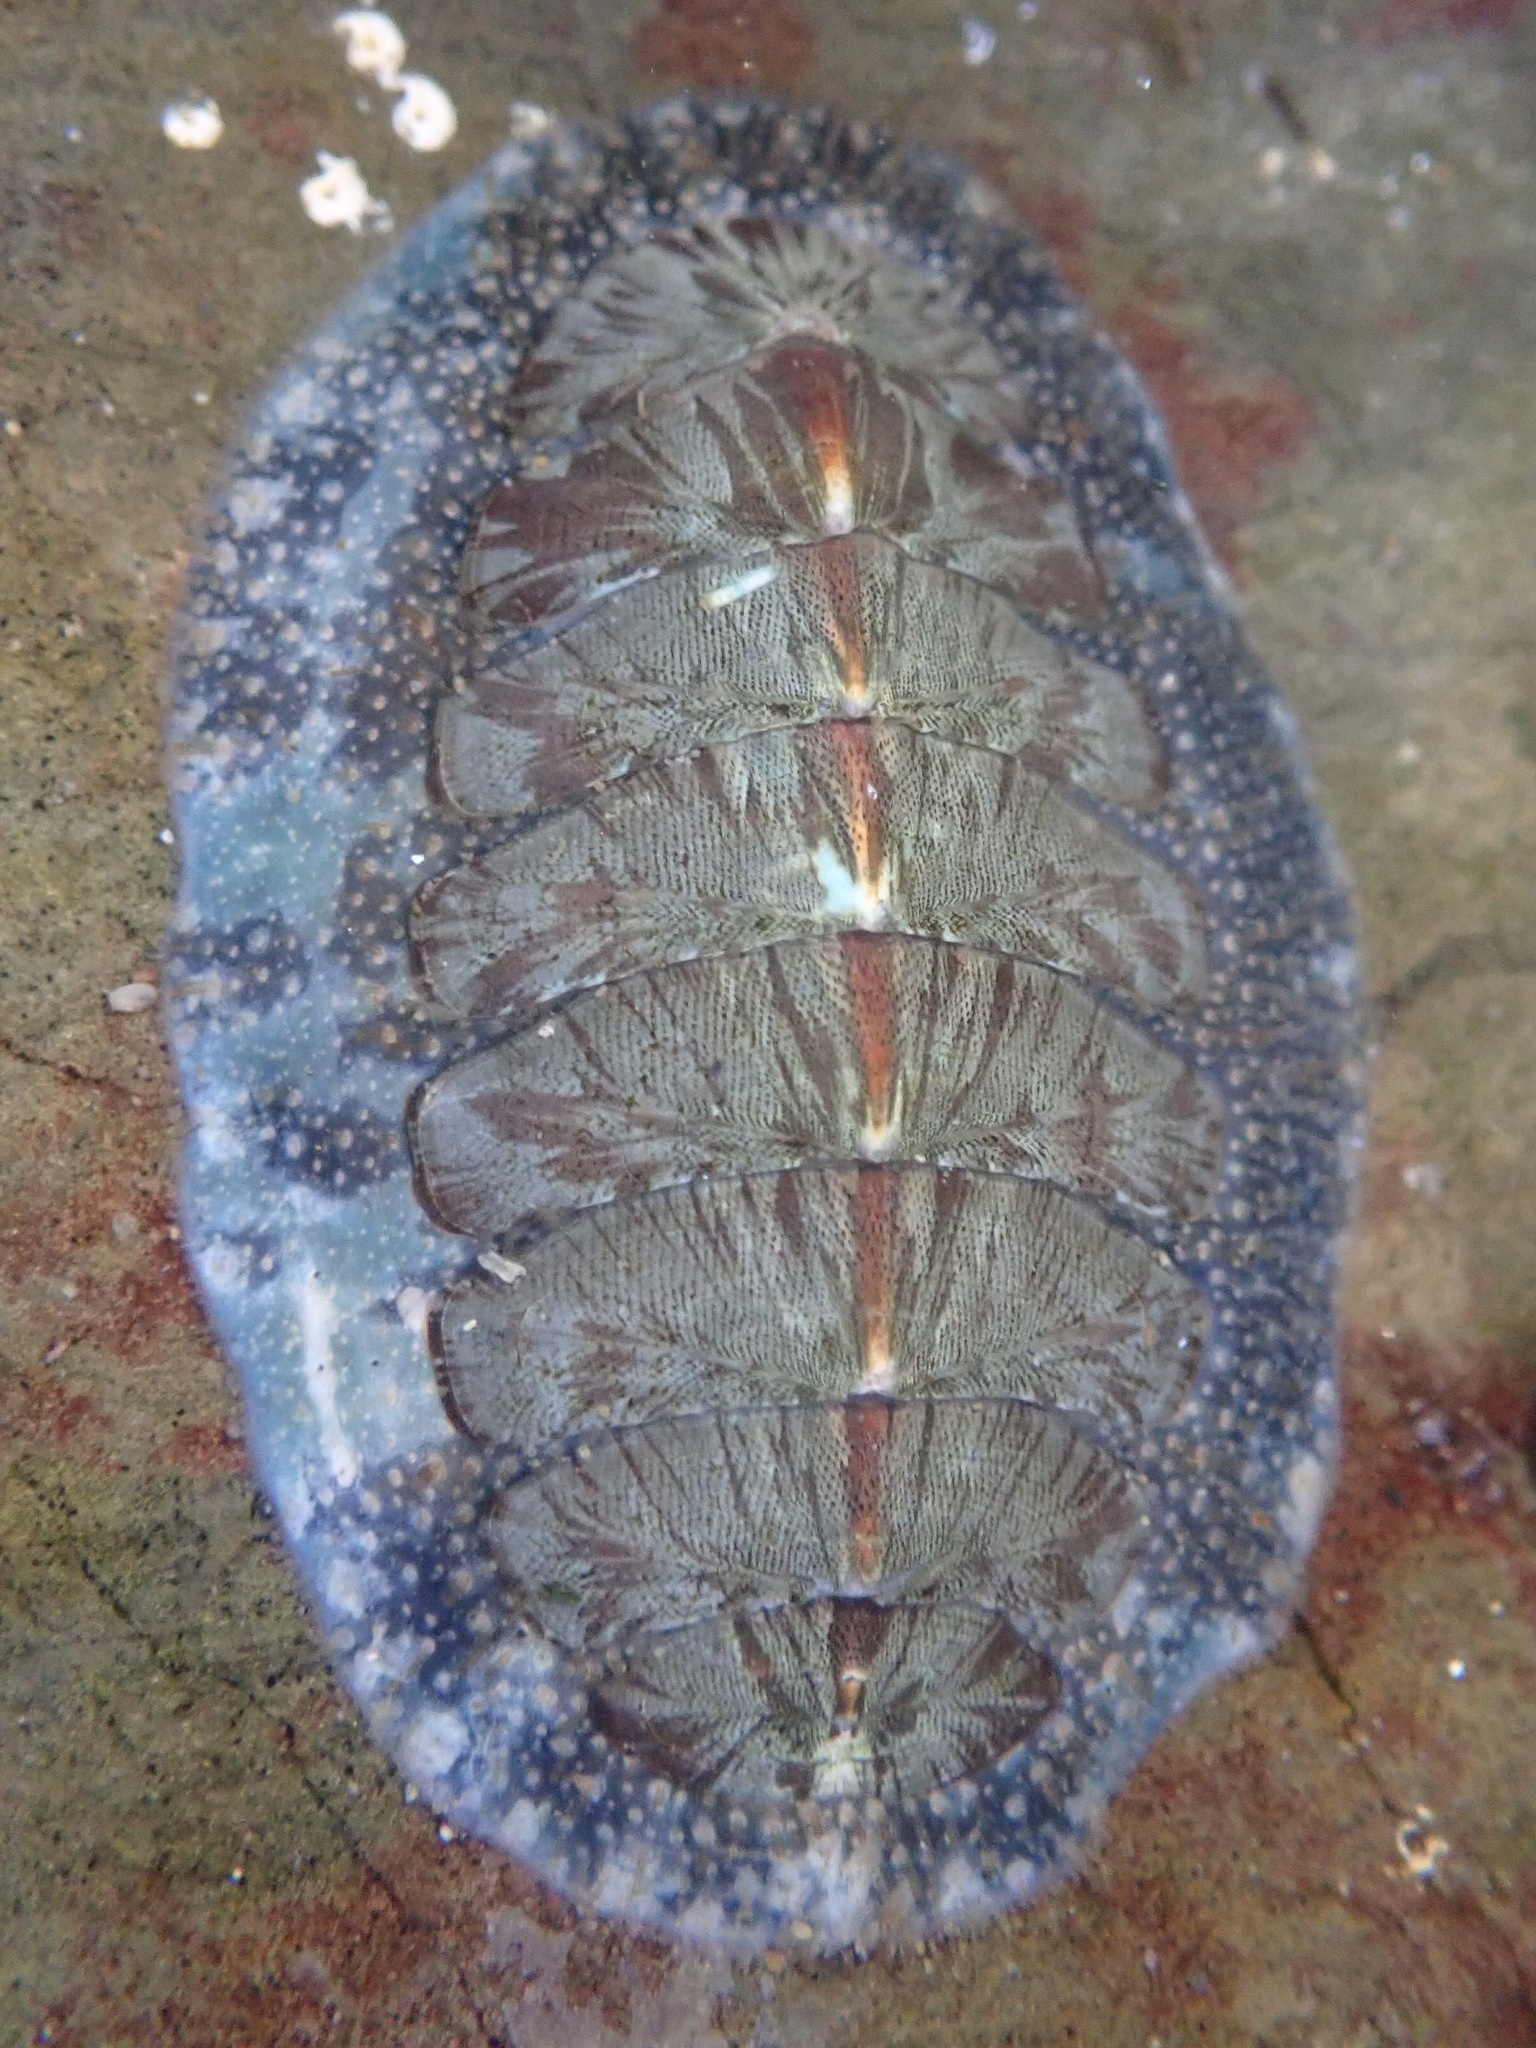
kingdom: Animalia
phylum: Mollusca
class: Polyplacophora
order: Chitonida
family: Mopaliidae
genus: Mopalia
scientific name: Mopalia lignosa
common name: Woody chiton
